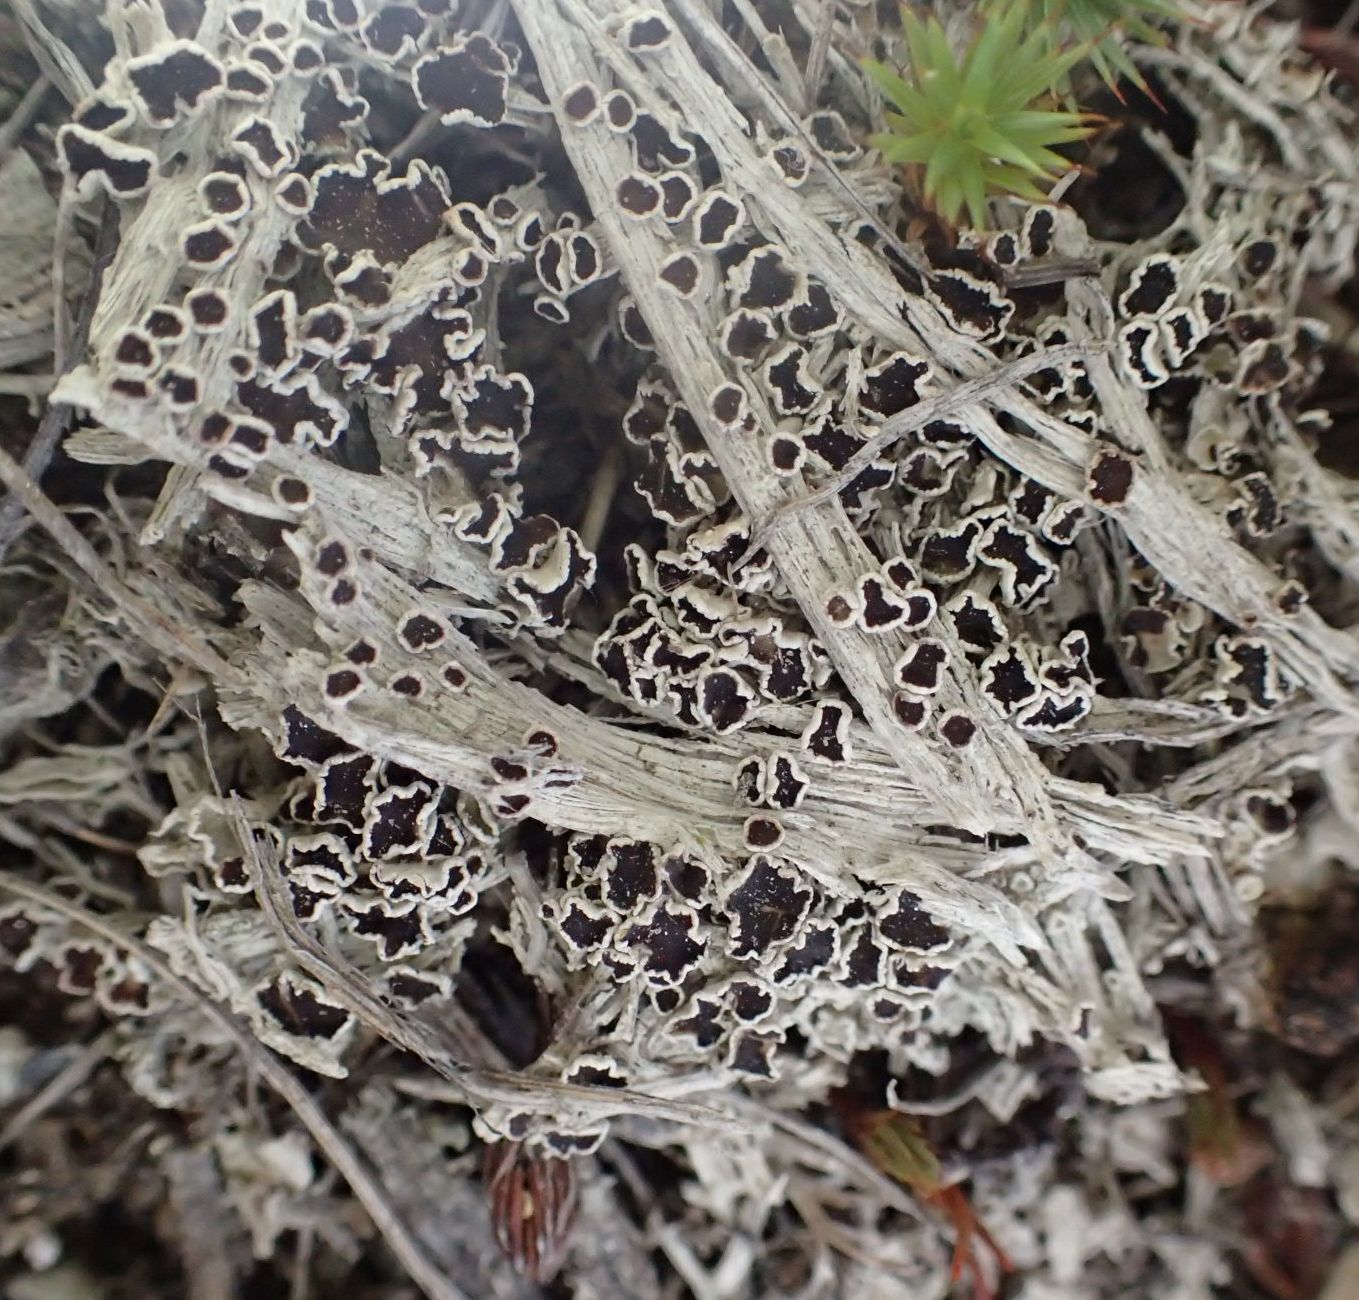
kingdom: Fungi
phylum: Ascomycota
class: Lecanoromycetes
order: Lecanorales
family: Lecanoraceae
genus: Lecanora
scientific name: Lecanora epibryon
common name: Mossbane rim lichen
